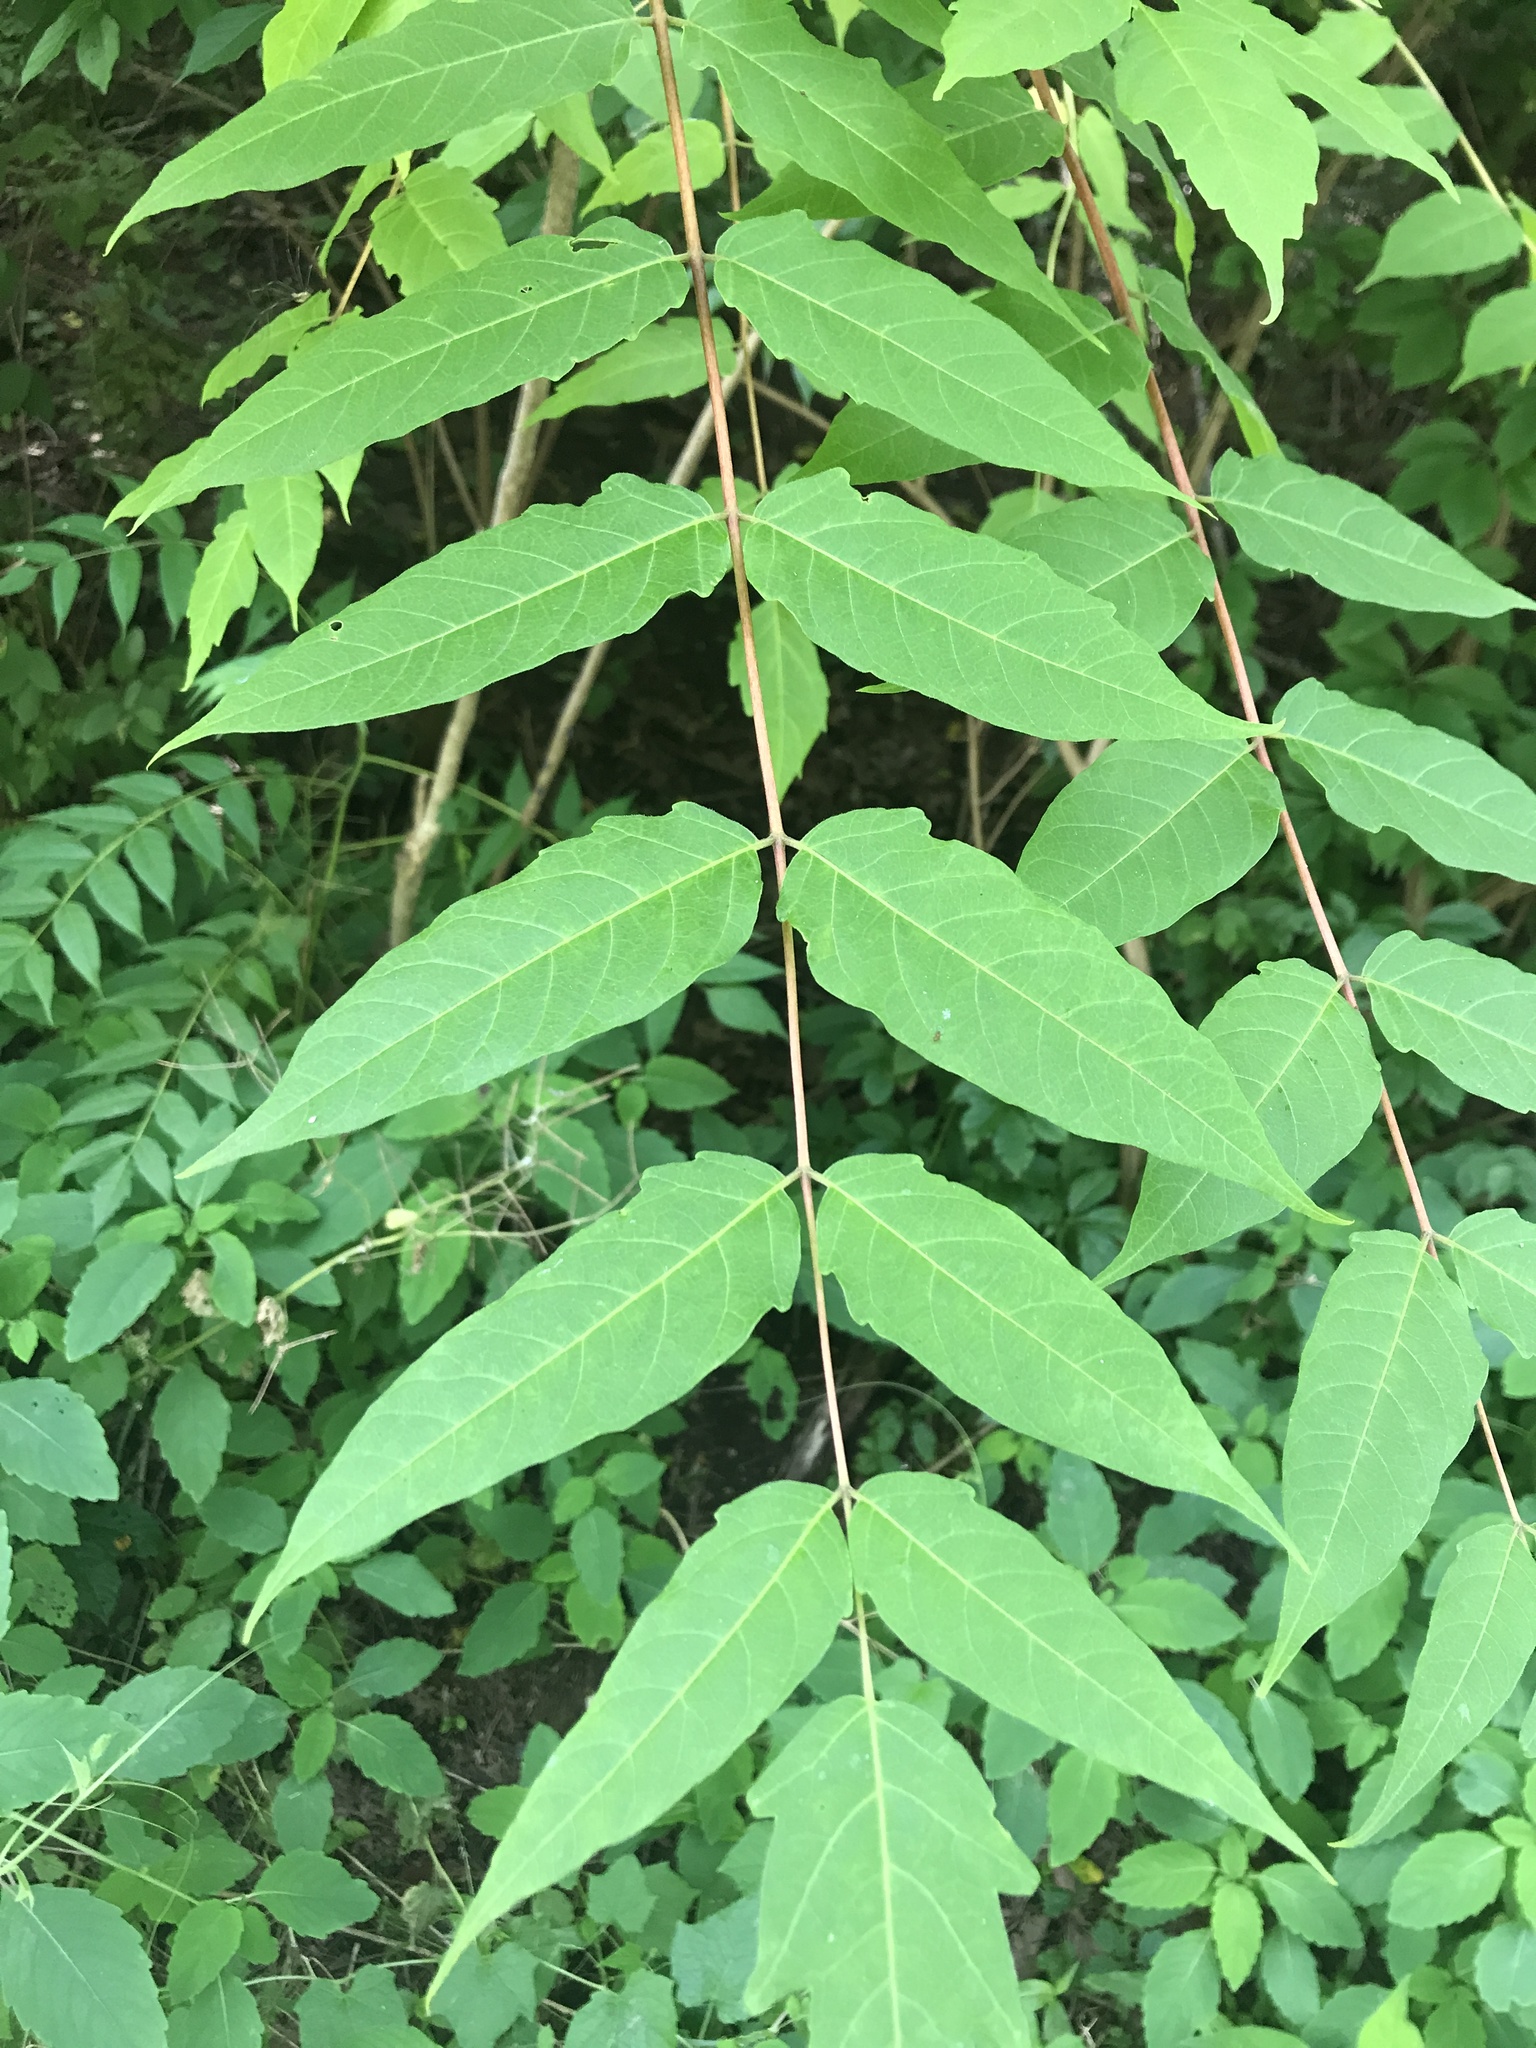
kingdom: Plantae
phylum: Tracheophyta
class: Magnoliopsida
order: Sapindales
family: Simaroubaceae
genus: Ailanthus
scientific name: Ailanthus altissima
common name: Tree-of-heaven
